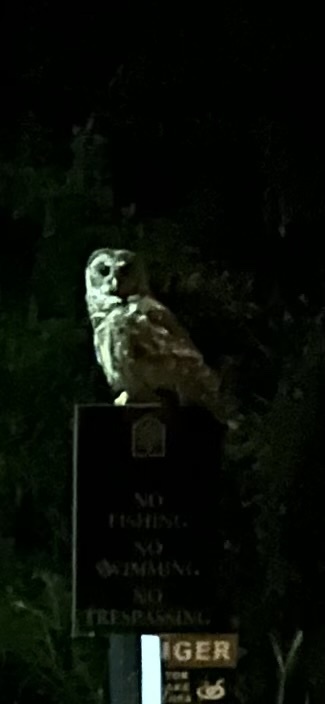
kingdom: Animalia
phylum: Chordata
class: Aves
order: Strigiformes
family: Strigidae
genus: Strix
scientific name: Strix varia
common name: Barred owl
